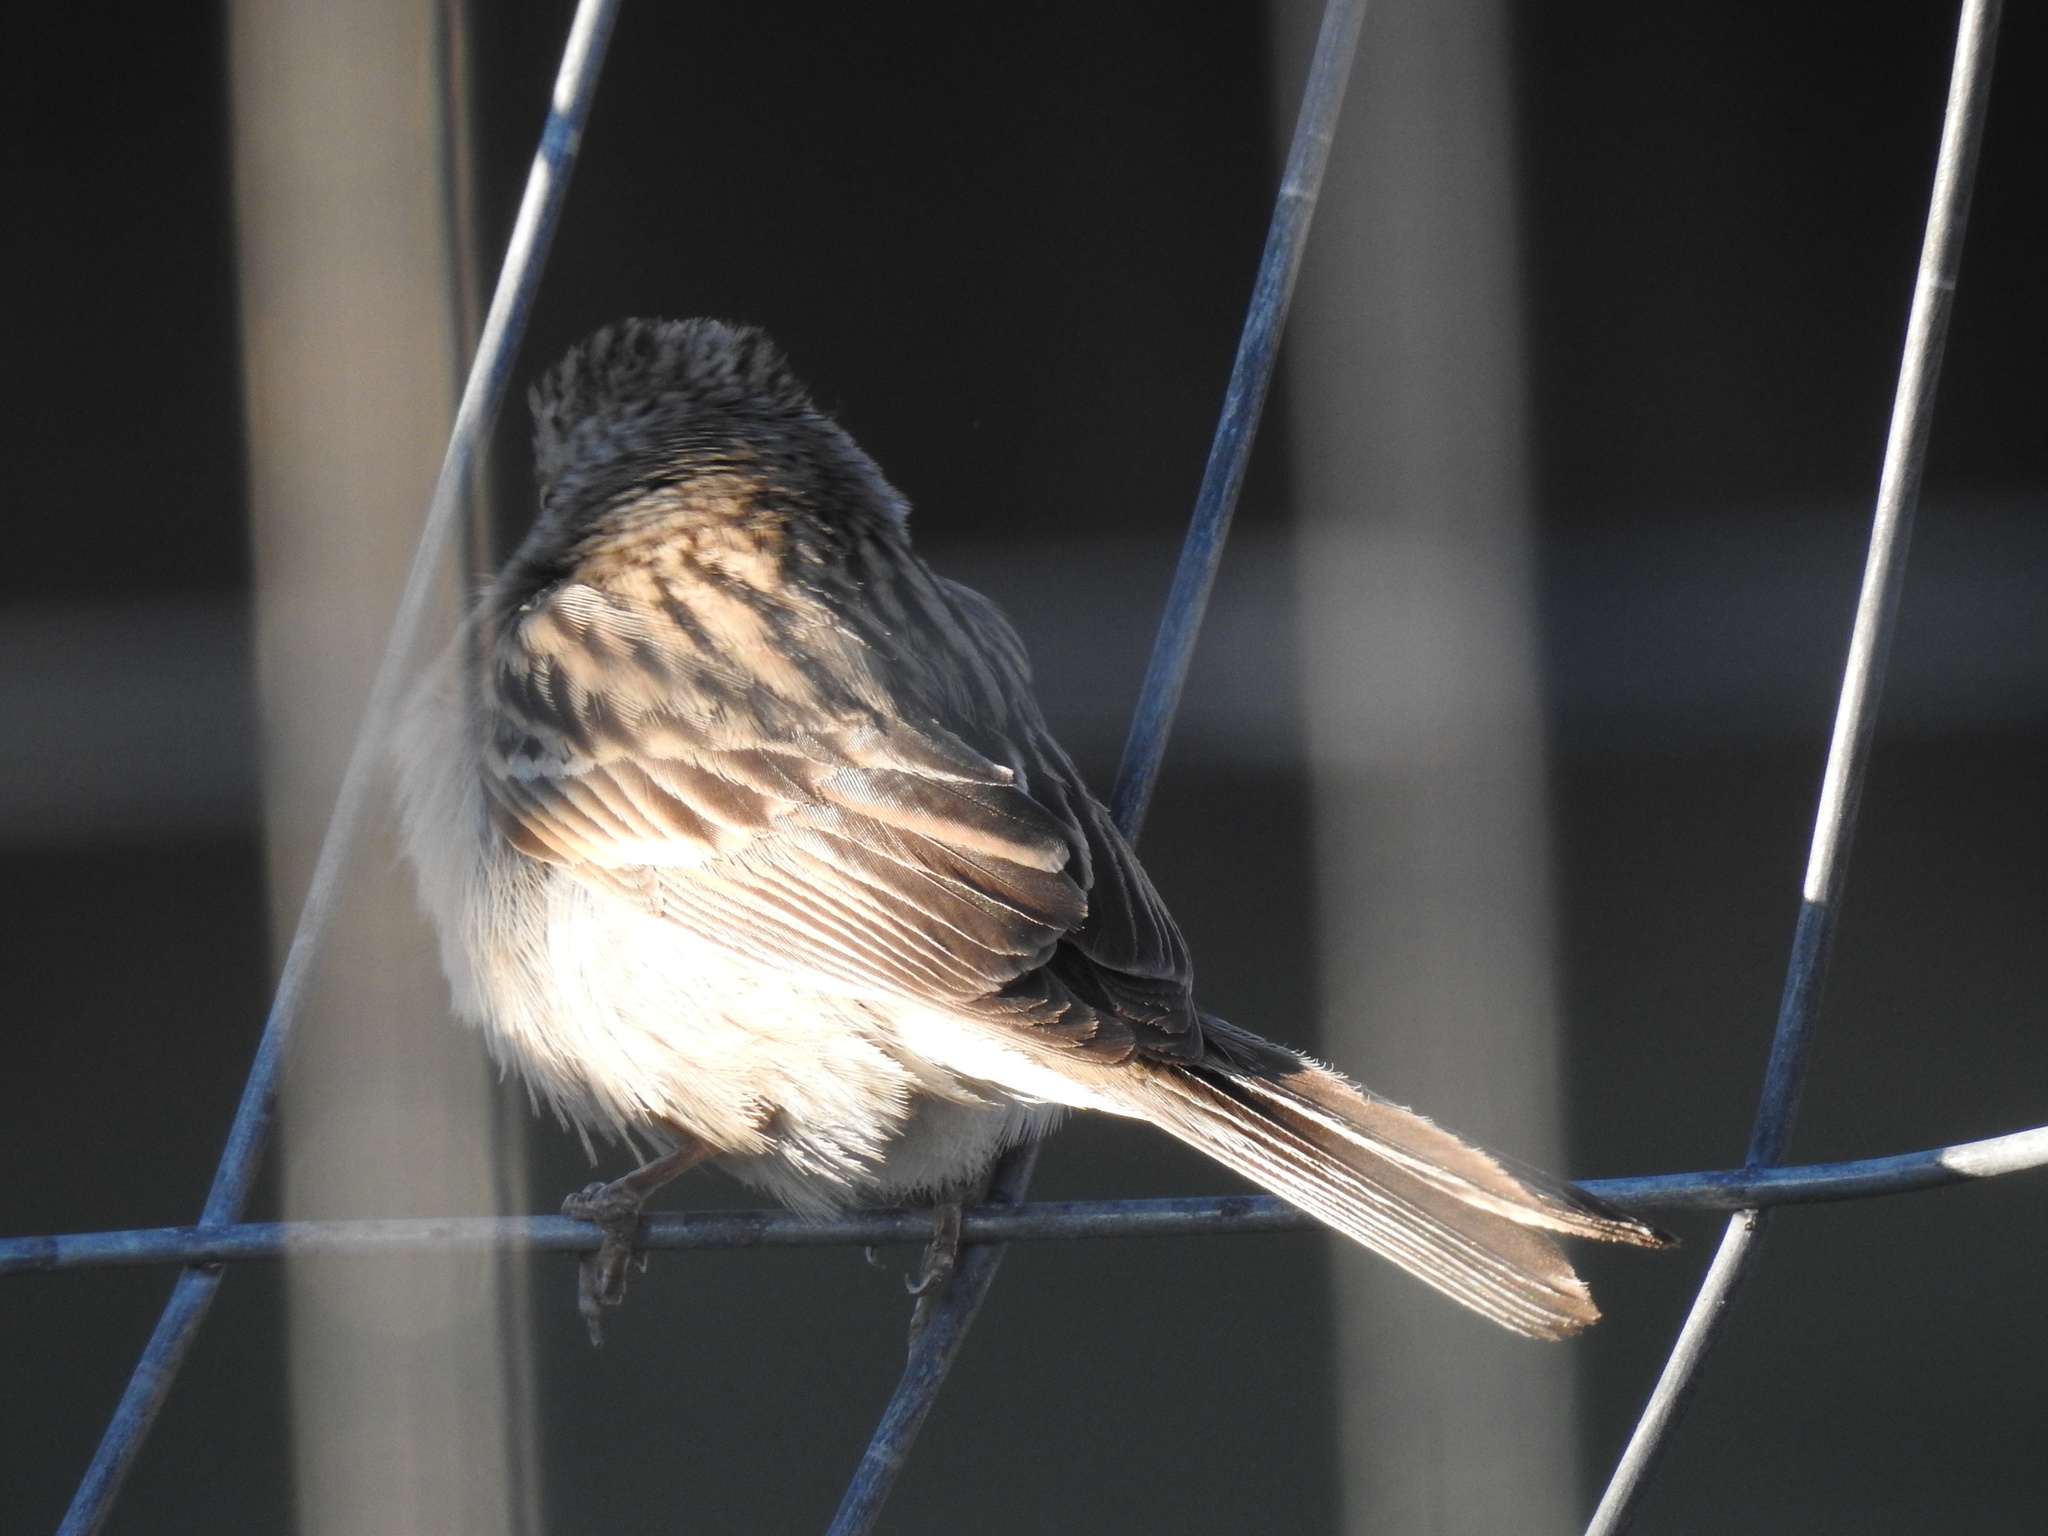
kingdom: Animalia
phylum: Chordata
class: Aves
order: Passeriformes
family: Passerellidae
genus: Spizella
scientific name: Spizella breweri
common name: Brewer's sparrow
